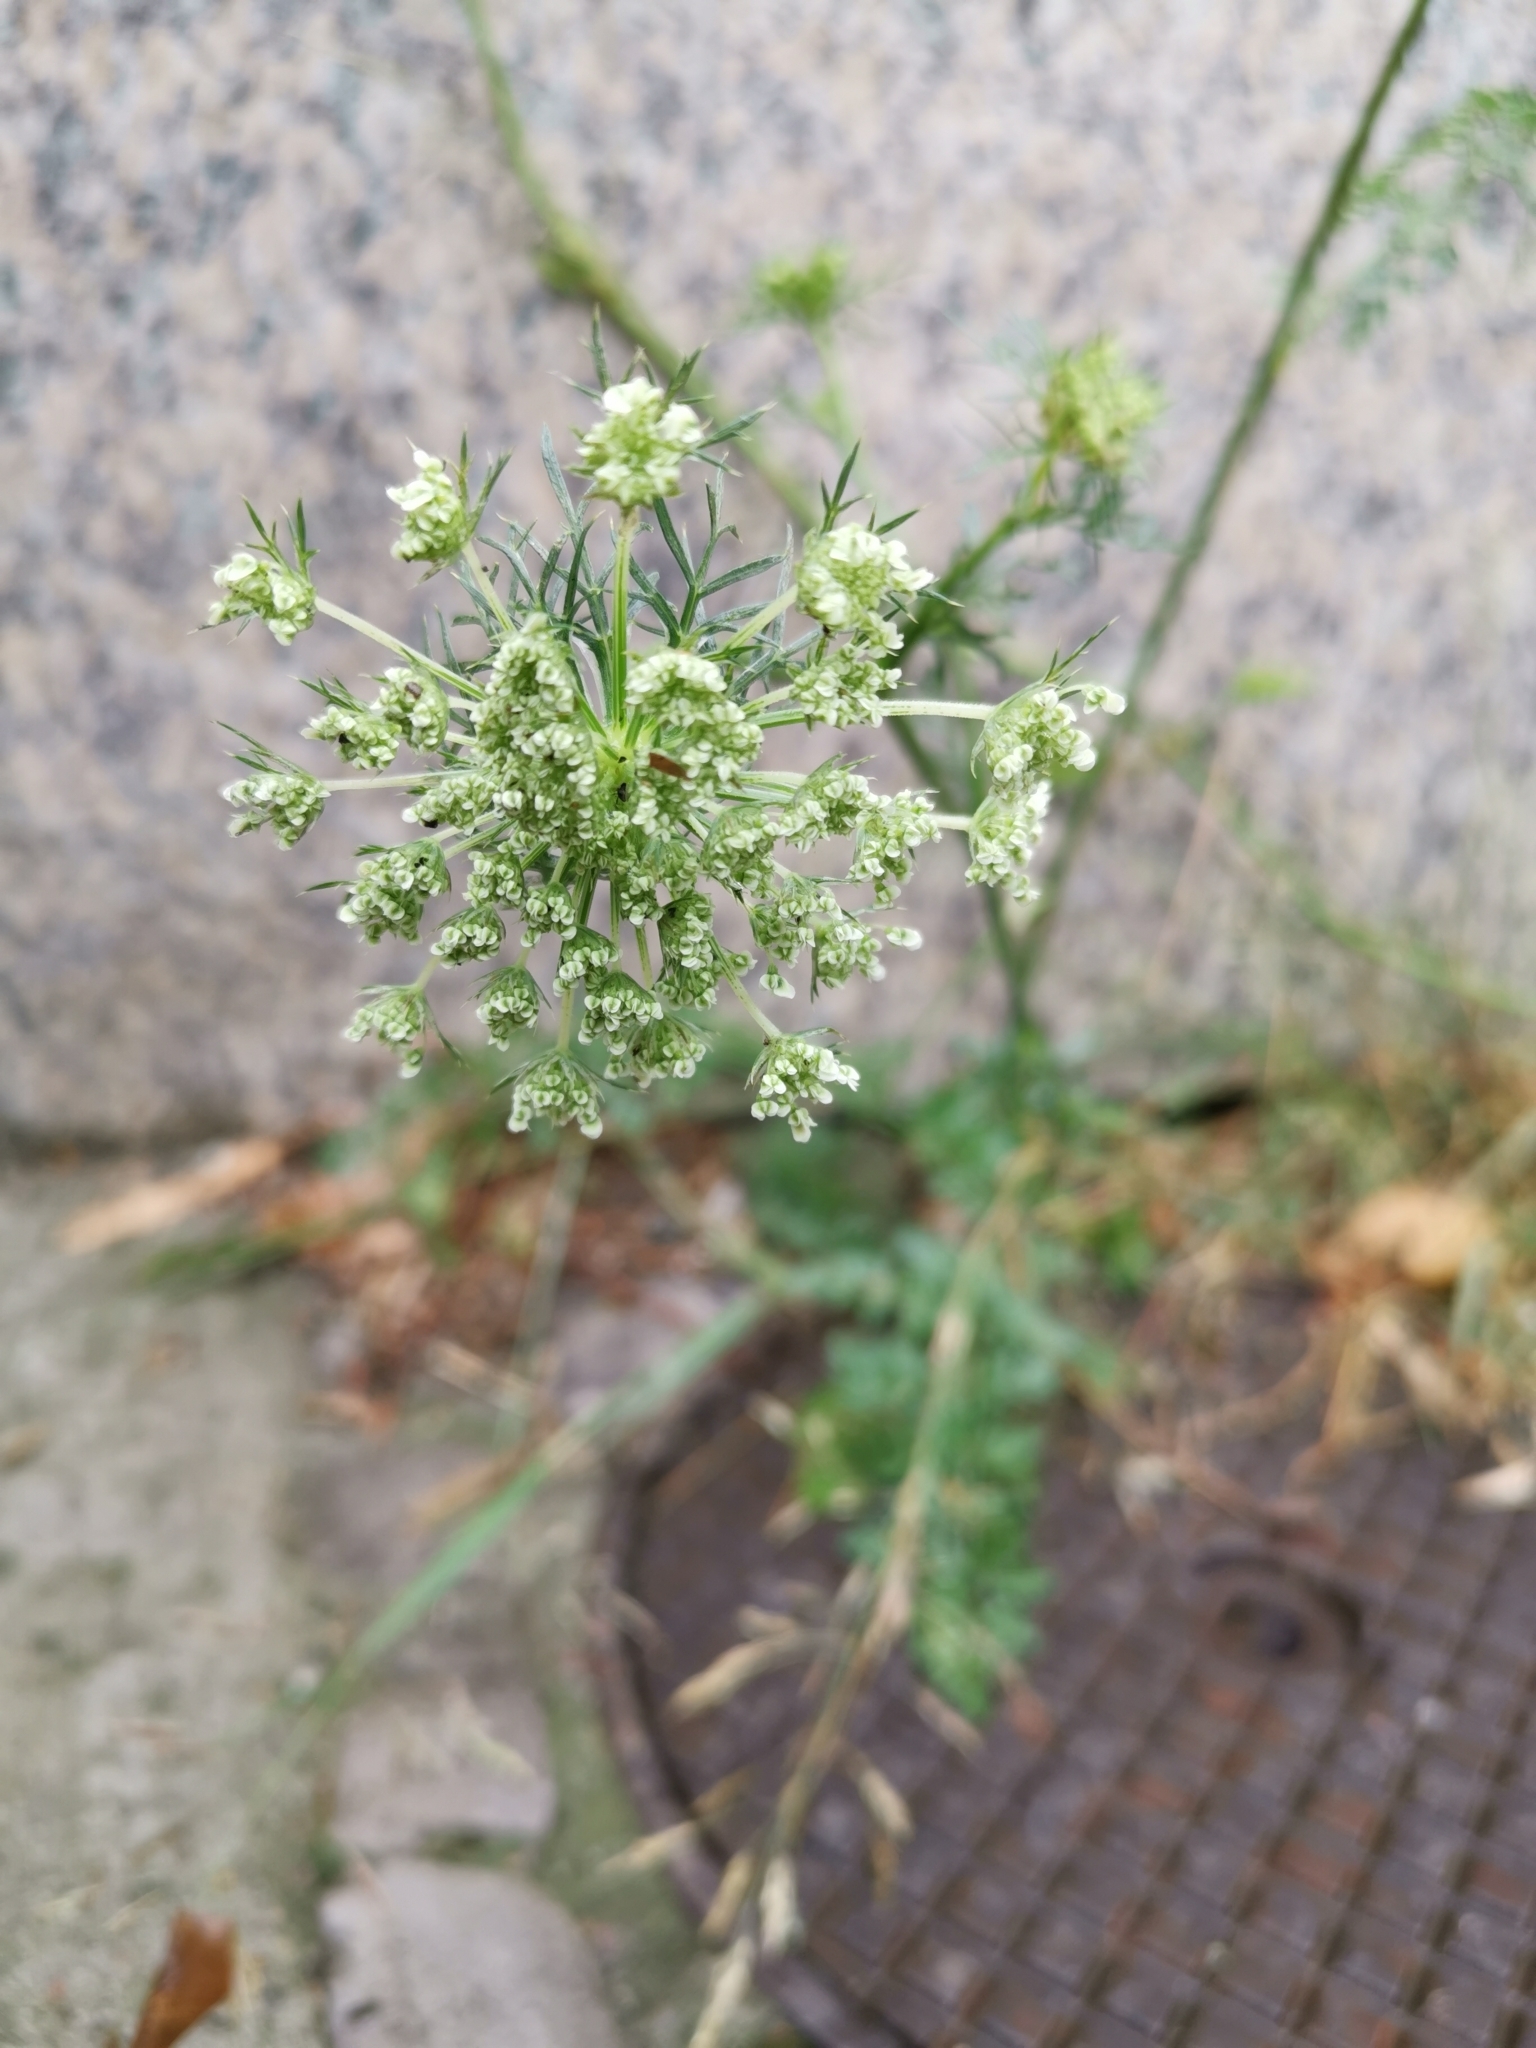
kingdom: Plantae
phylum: Tracheophyta
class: Magnoliopsida
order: Apiales
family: Apiaceae
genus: Daucus
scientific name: Daucus carota
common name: Wild carrot
